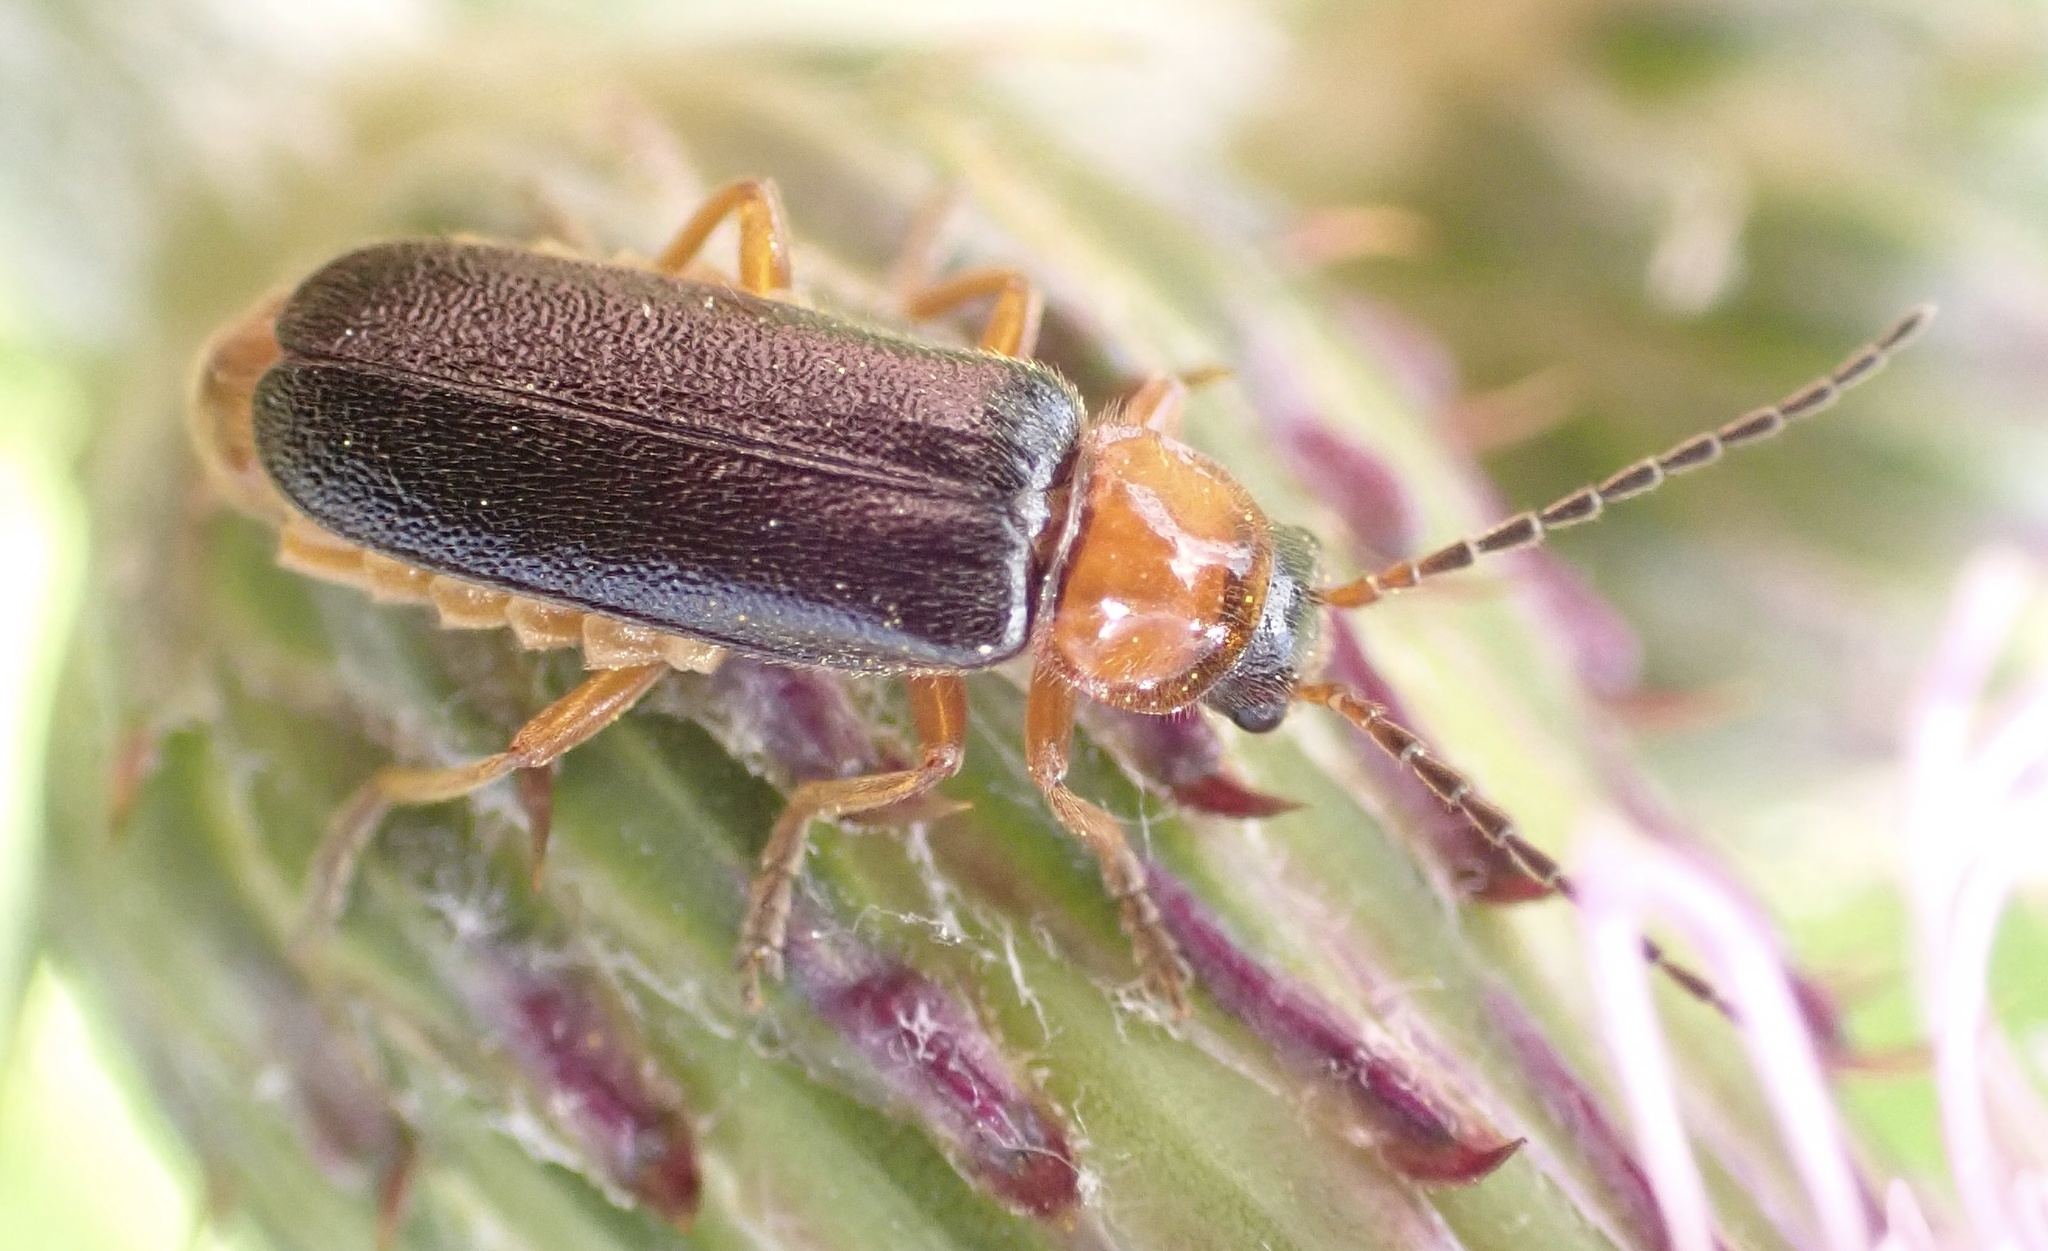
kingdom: Animalia
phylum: Arthropoda
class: Insecta
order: Coleoptera
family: Cantharidae
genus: Cantharis
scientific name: Cantharis nigra
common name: Cantharid beetle
